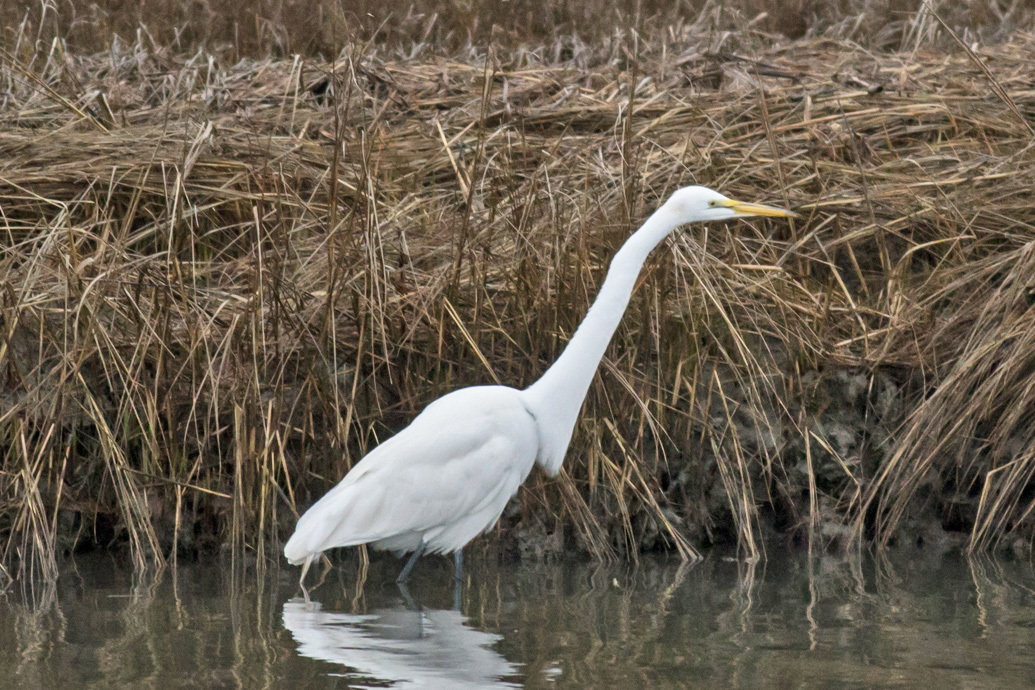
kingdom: Animalia
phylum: Chordata
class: Aves
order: Pelecaniformes
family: Ardeidae
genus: Ardea
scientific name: Ardea alba
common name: Great egret
